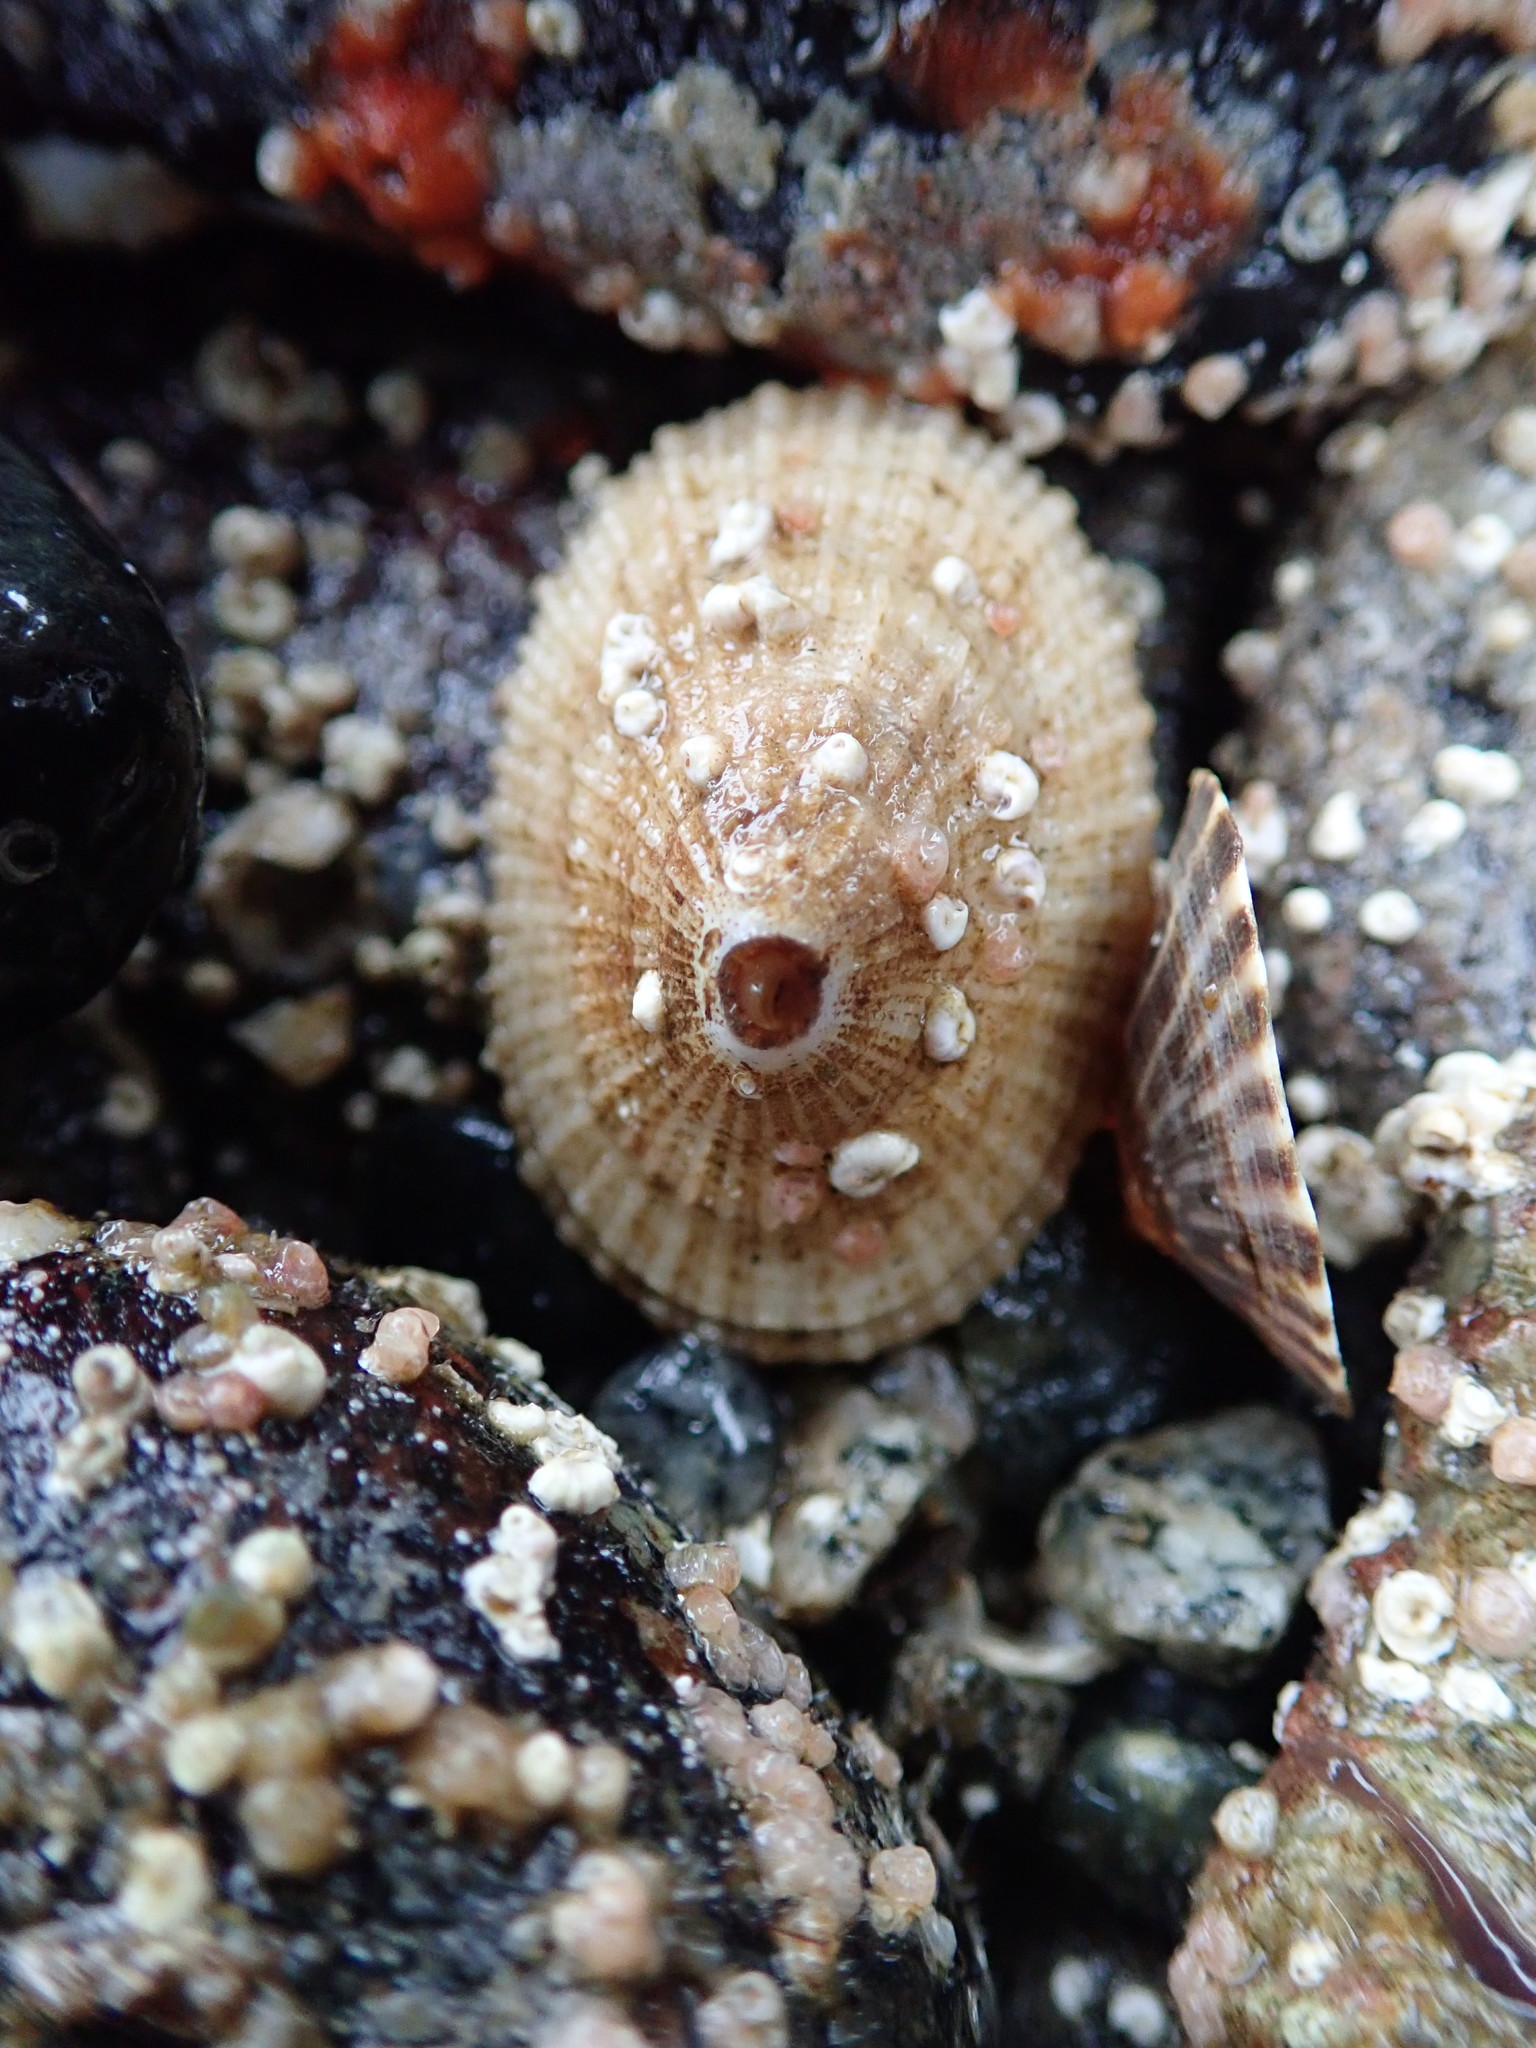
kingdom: Animalia
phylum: Mollusca
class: Gastropoda
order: Lepetellida
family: Fissurellidae
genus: Diodora
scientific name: Diodora aspera
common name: Rough keyhole limpet
